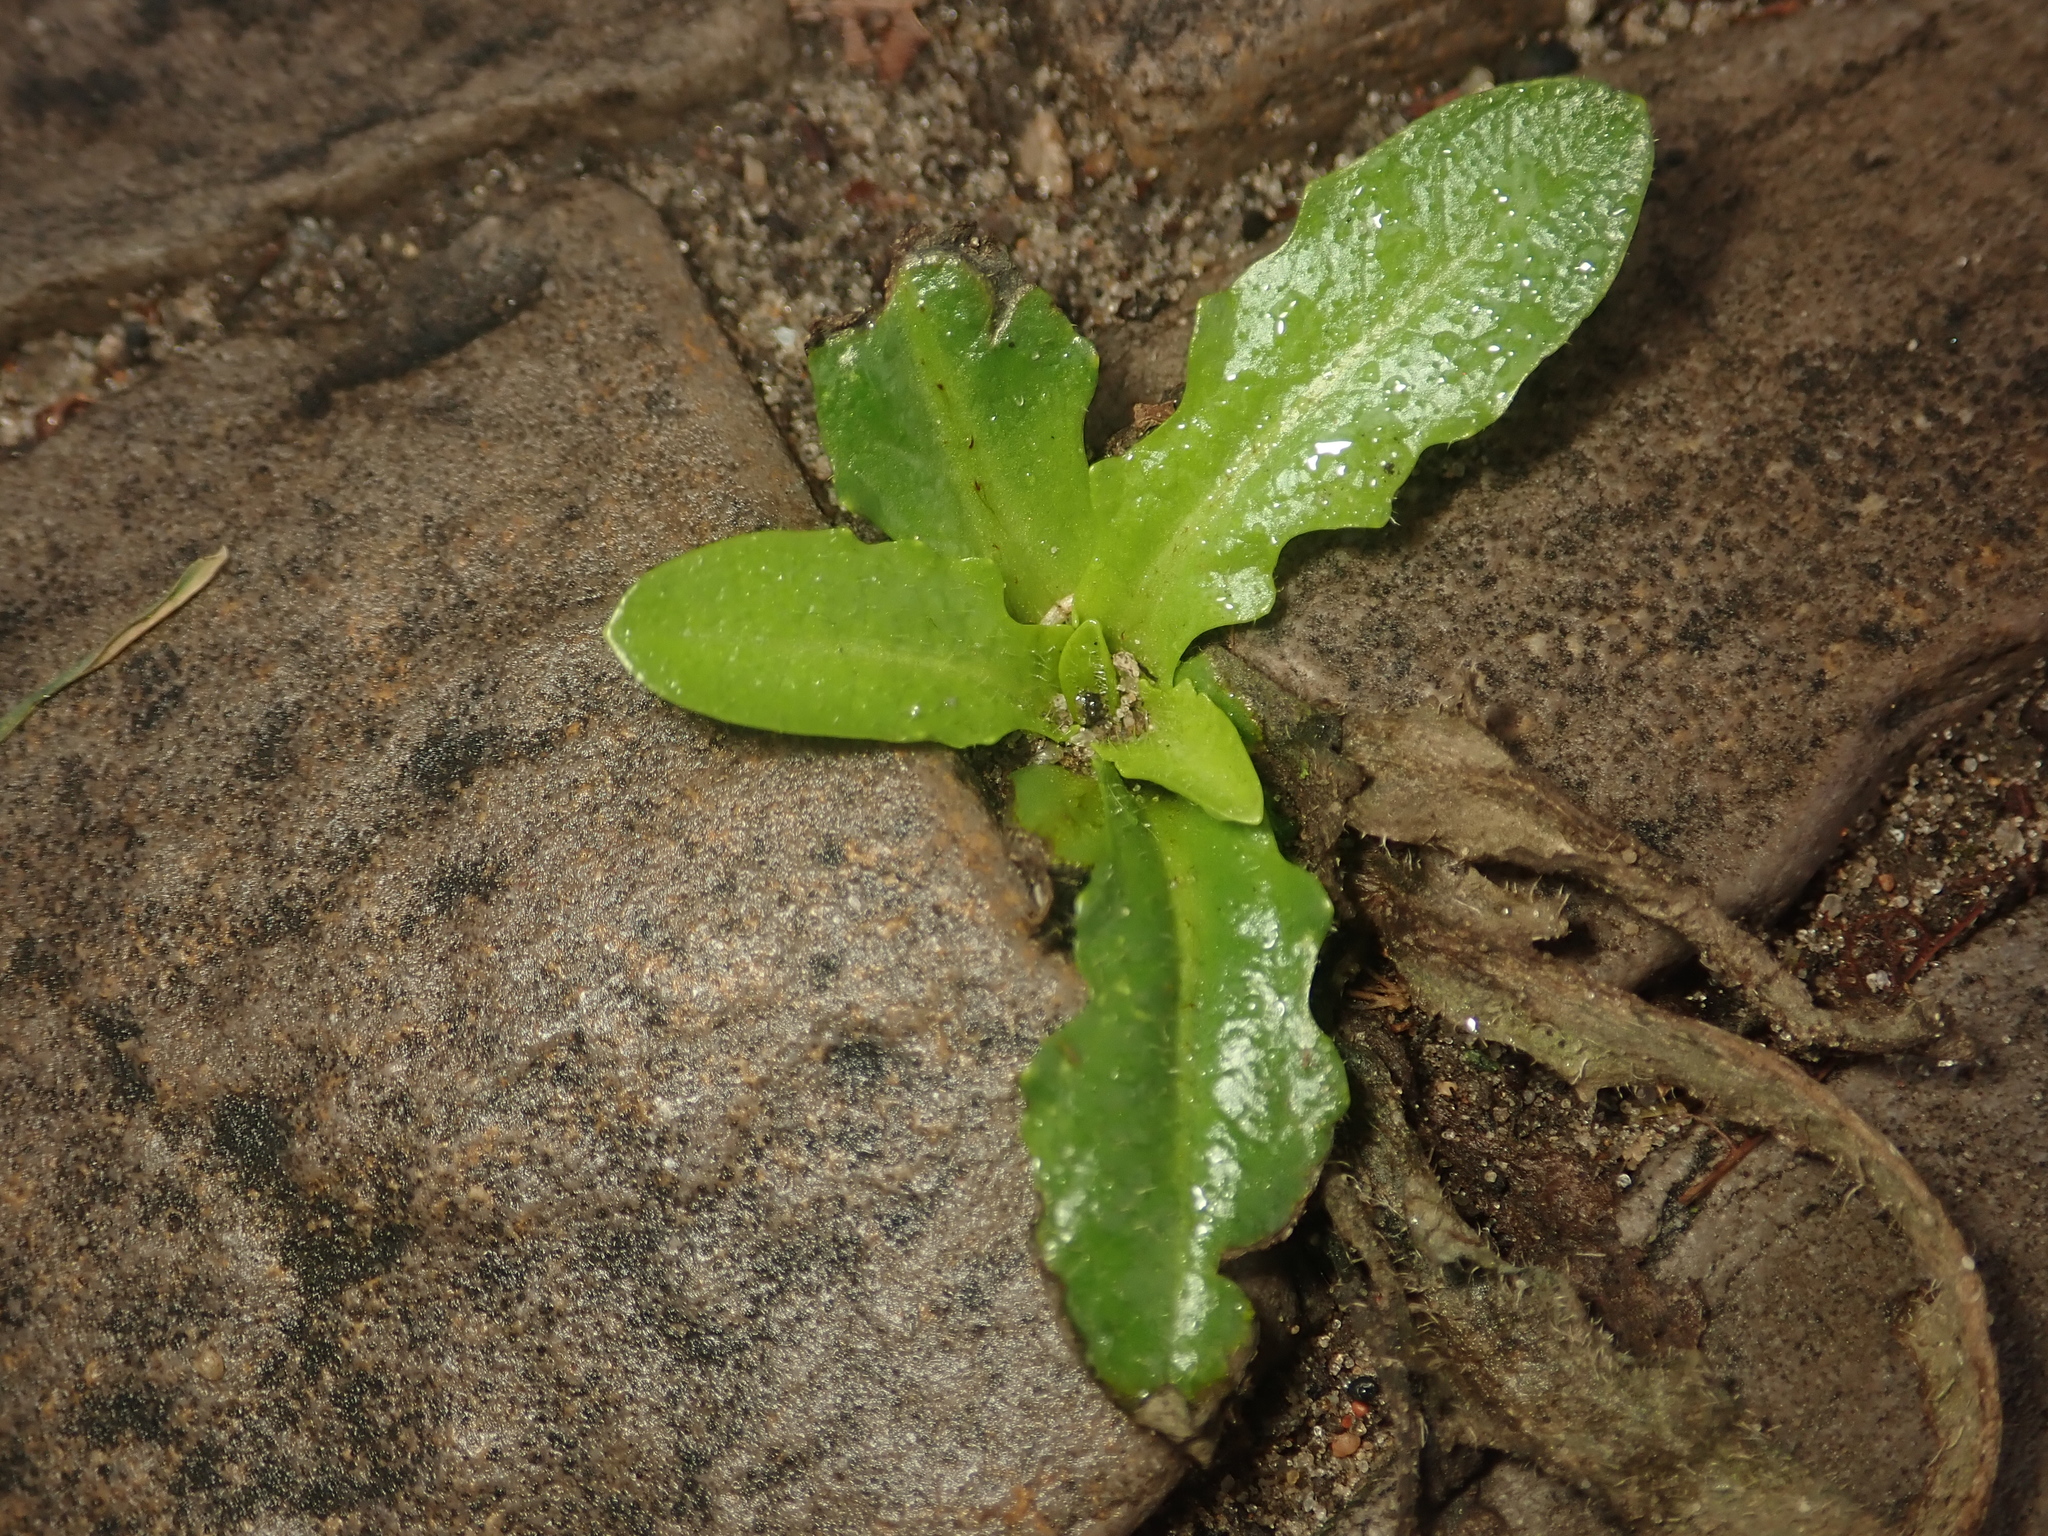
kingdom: Plantae
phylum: Tracheophyta
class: Magnoliopsida
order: Asterales
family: Asteraceae
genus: Hypochaeris
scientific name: Hypochaeris radicata
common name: Flatweed
